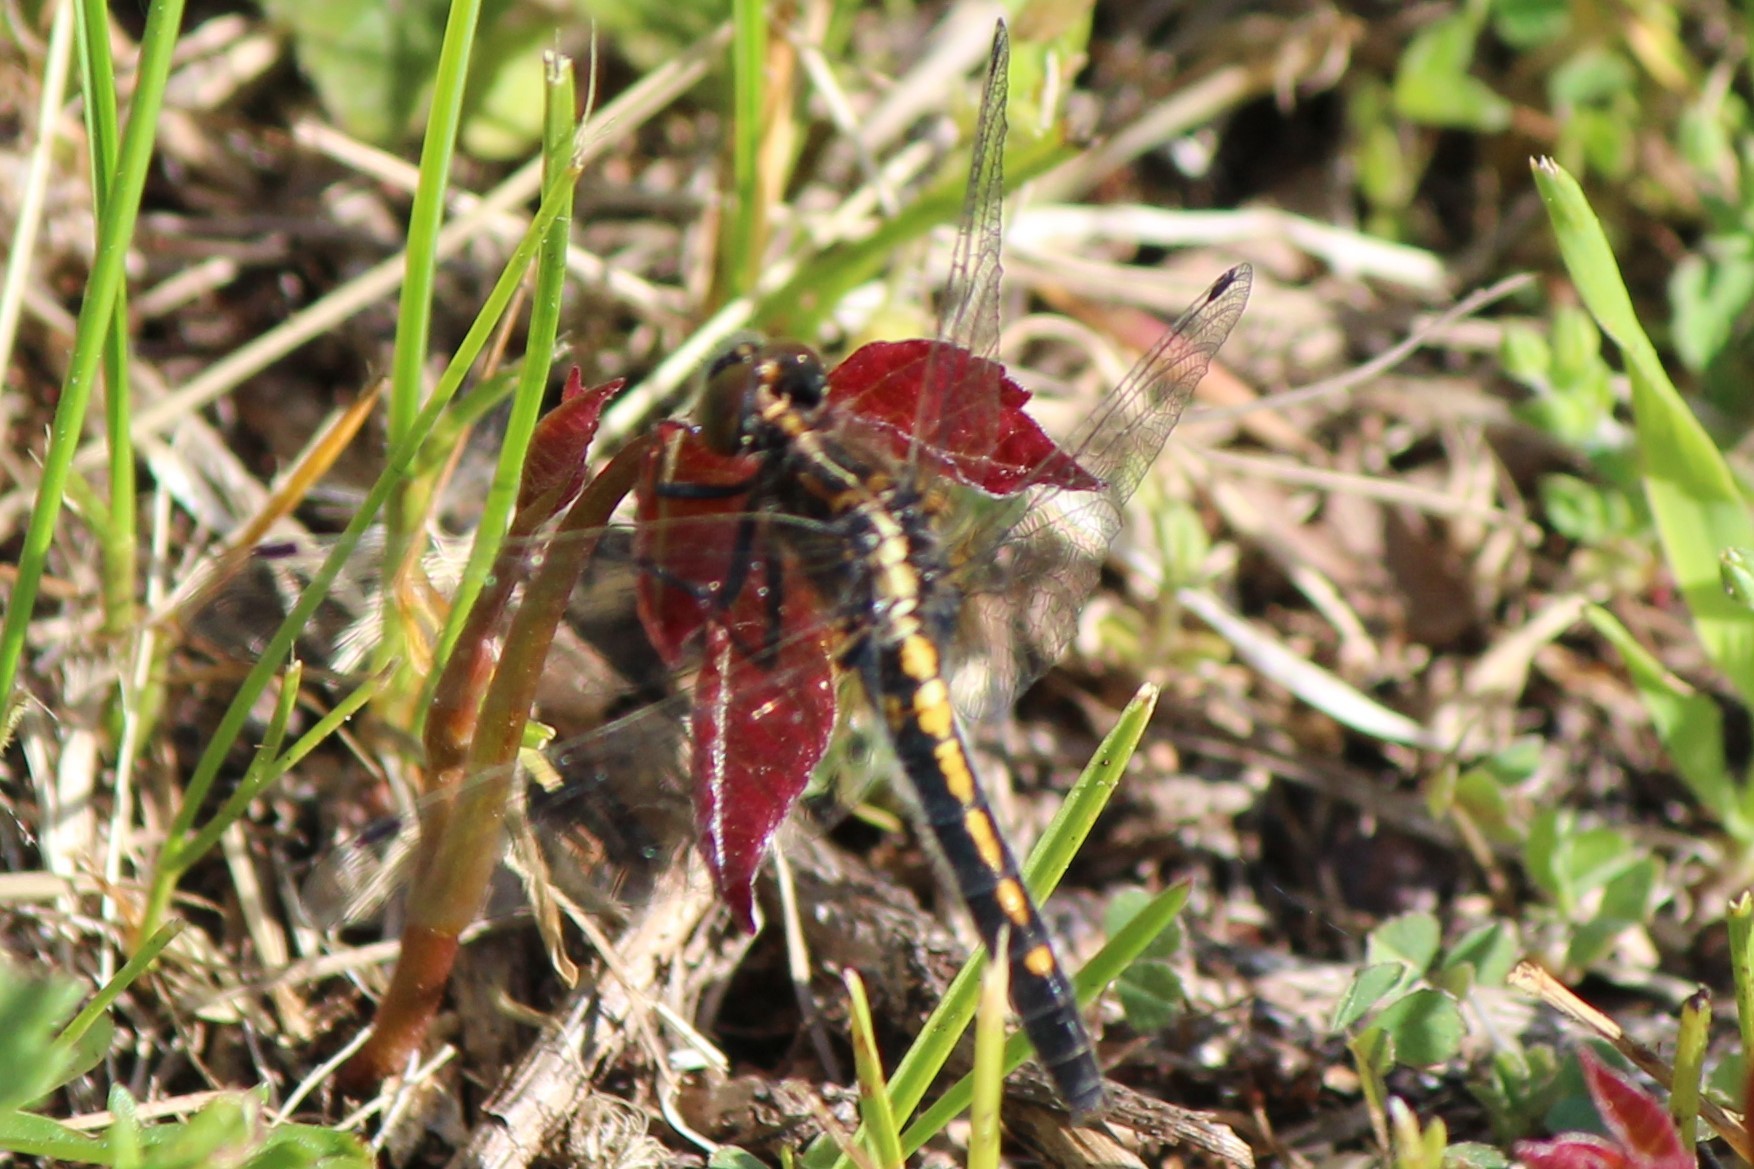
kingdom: Animalia
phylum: Arthropoda
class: Insecta
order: Odonata
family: Libellulidae
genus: Leucorrhinia
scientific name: Leucorrhinia intacta
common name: Dot-tailed whiteface
